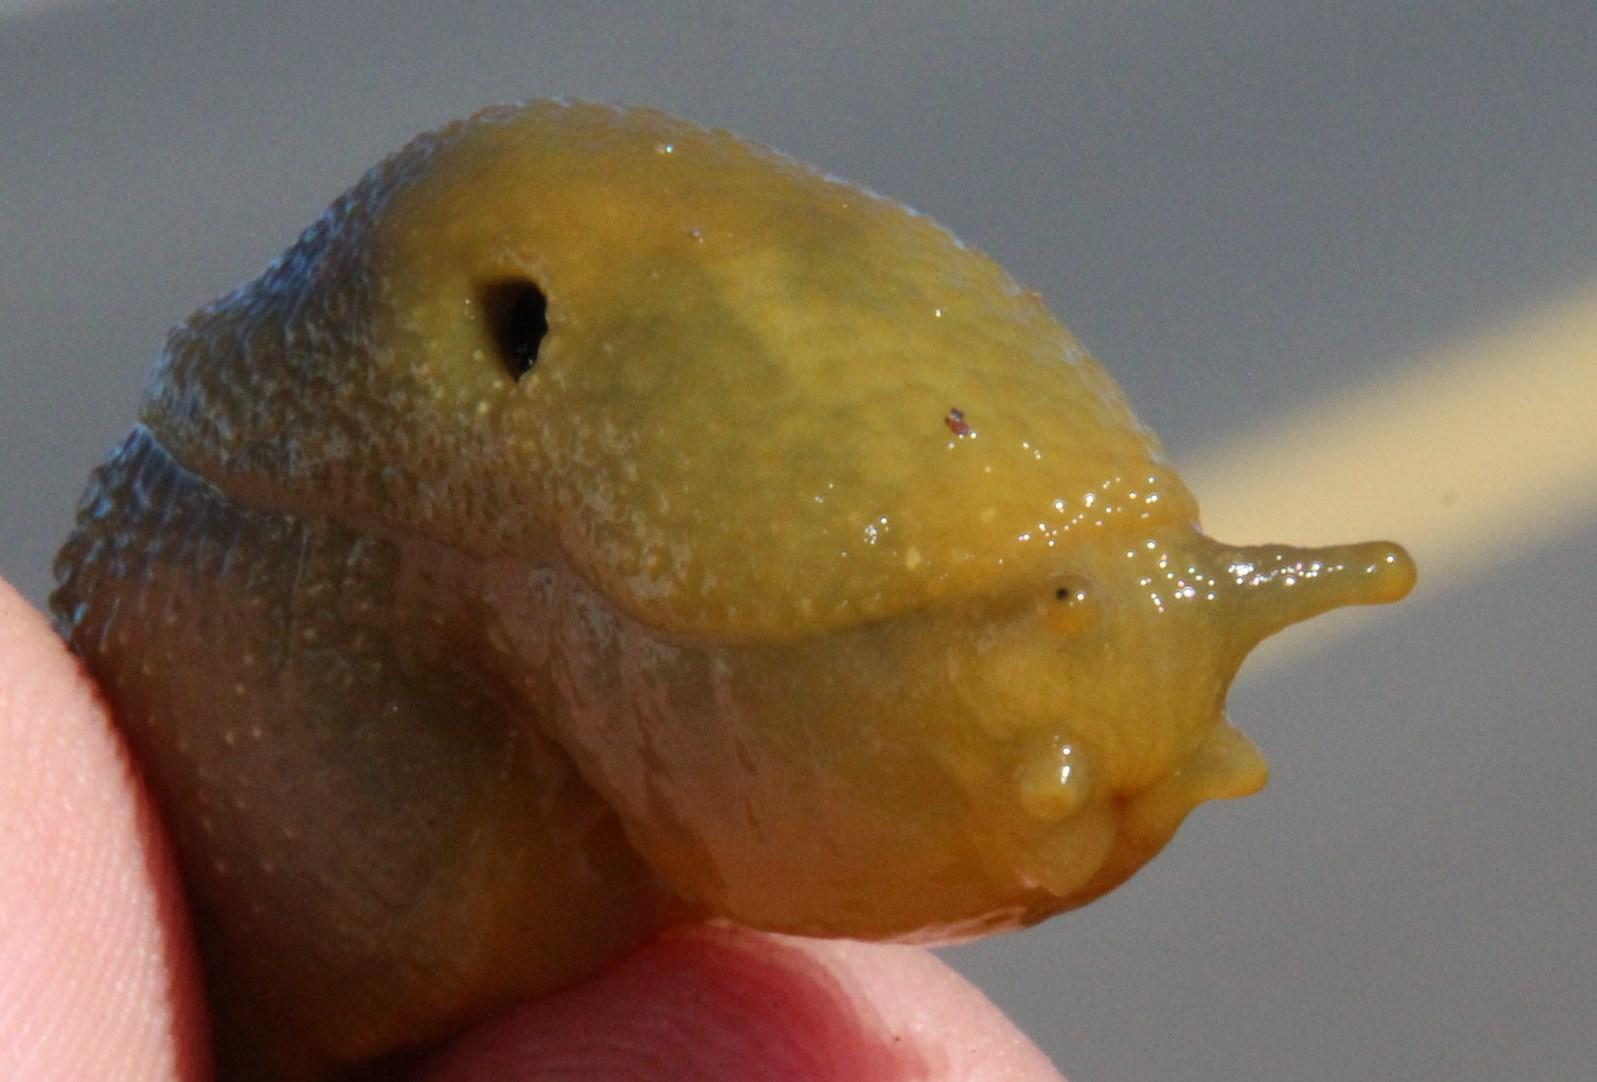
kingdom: Animalia
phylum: Mollusca
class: Gastropoda
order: Stylommatophora
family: Oopeltidae
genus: Oopelta
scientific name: Oopelta granulosa
